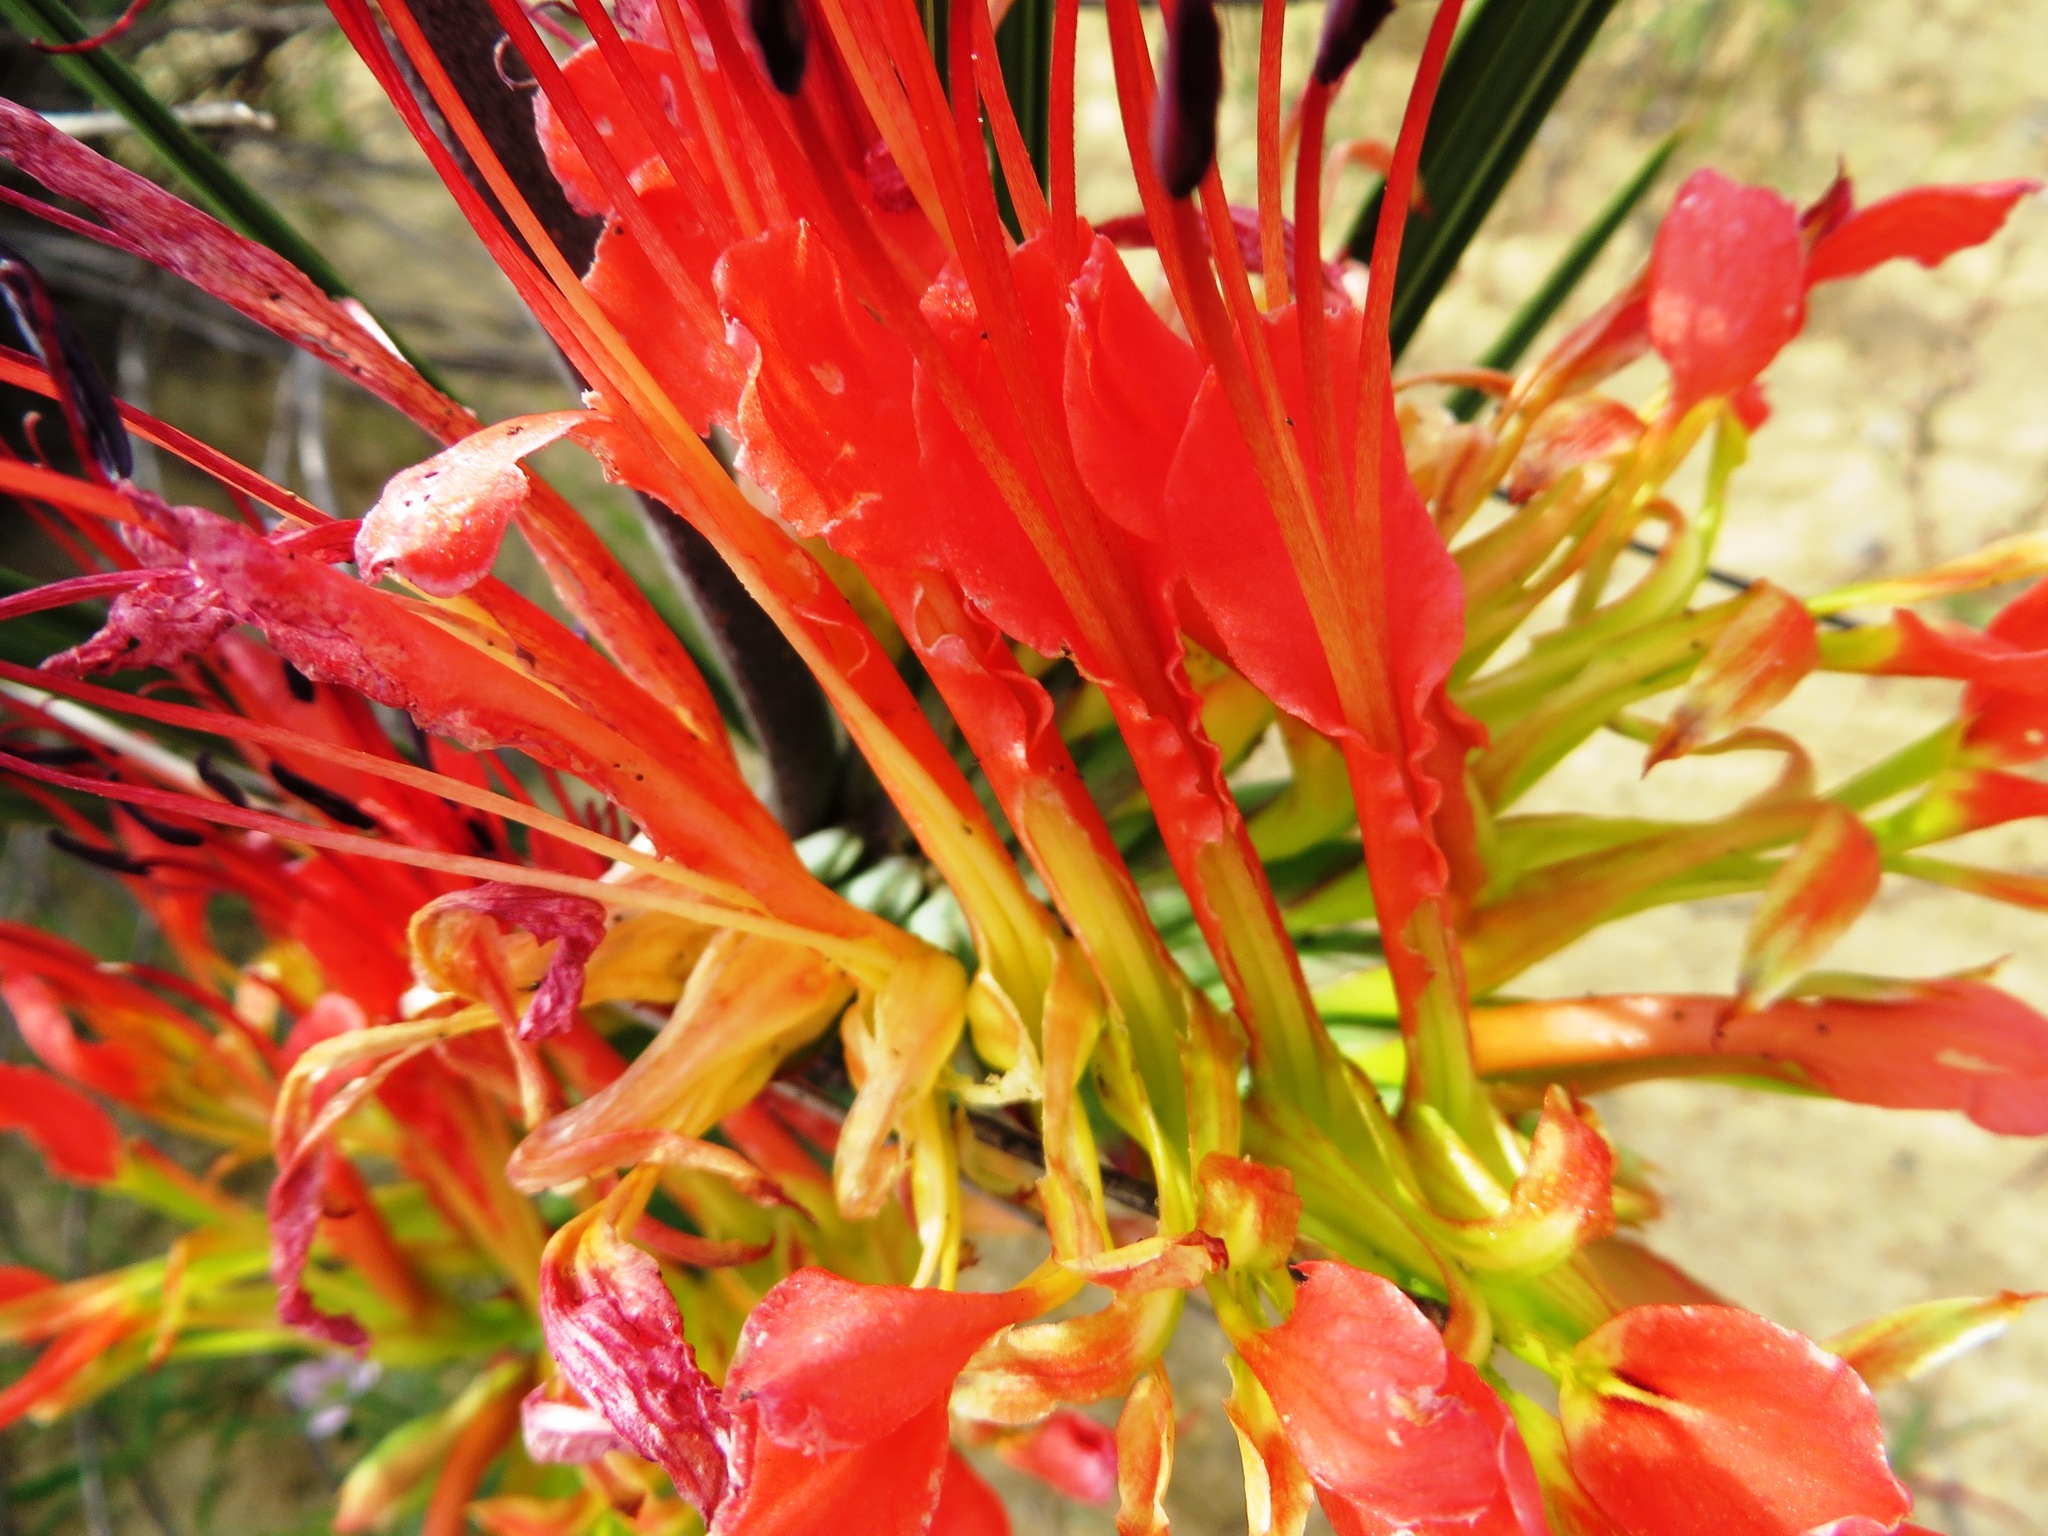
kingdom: Plantae
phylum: Tracheophyta
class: Liliopsida
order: Asparagales
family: Iridaceae
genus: Babiana
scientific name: Babiana ringens
